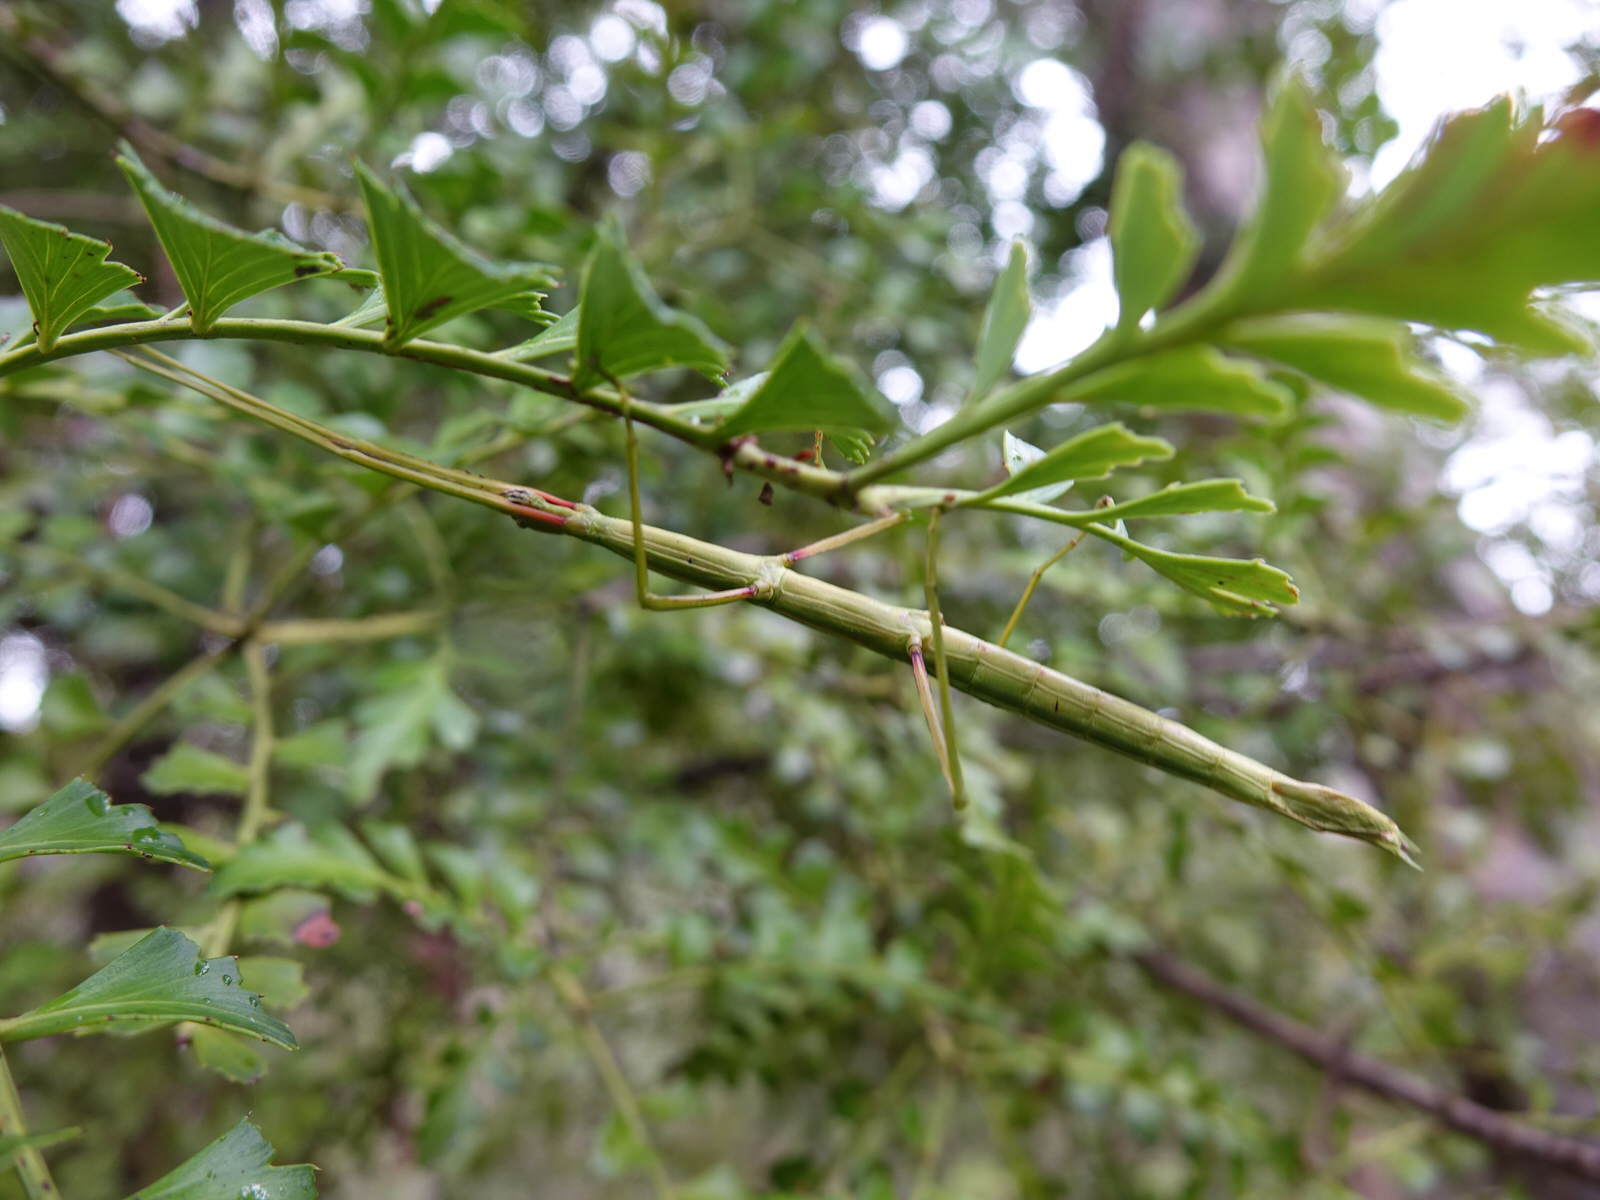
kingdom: Animalia
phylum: Arthropoda
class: Insecta
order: Phasmida
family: Phasmatidae
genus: Clitarchus
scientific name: Clitarchus hookeri
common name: Smooth stick insect
